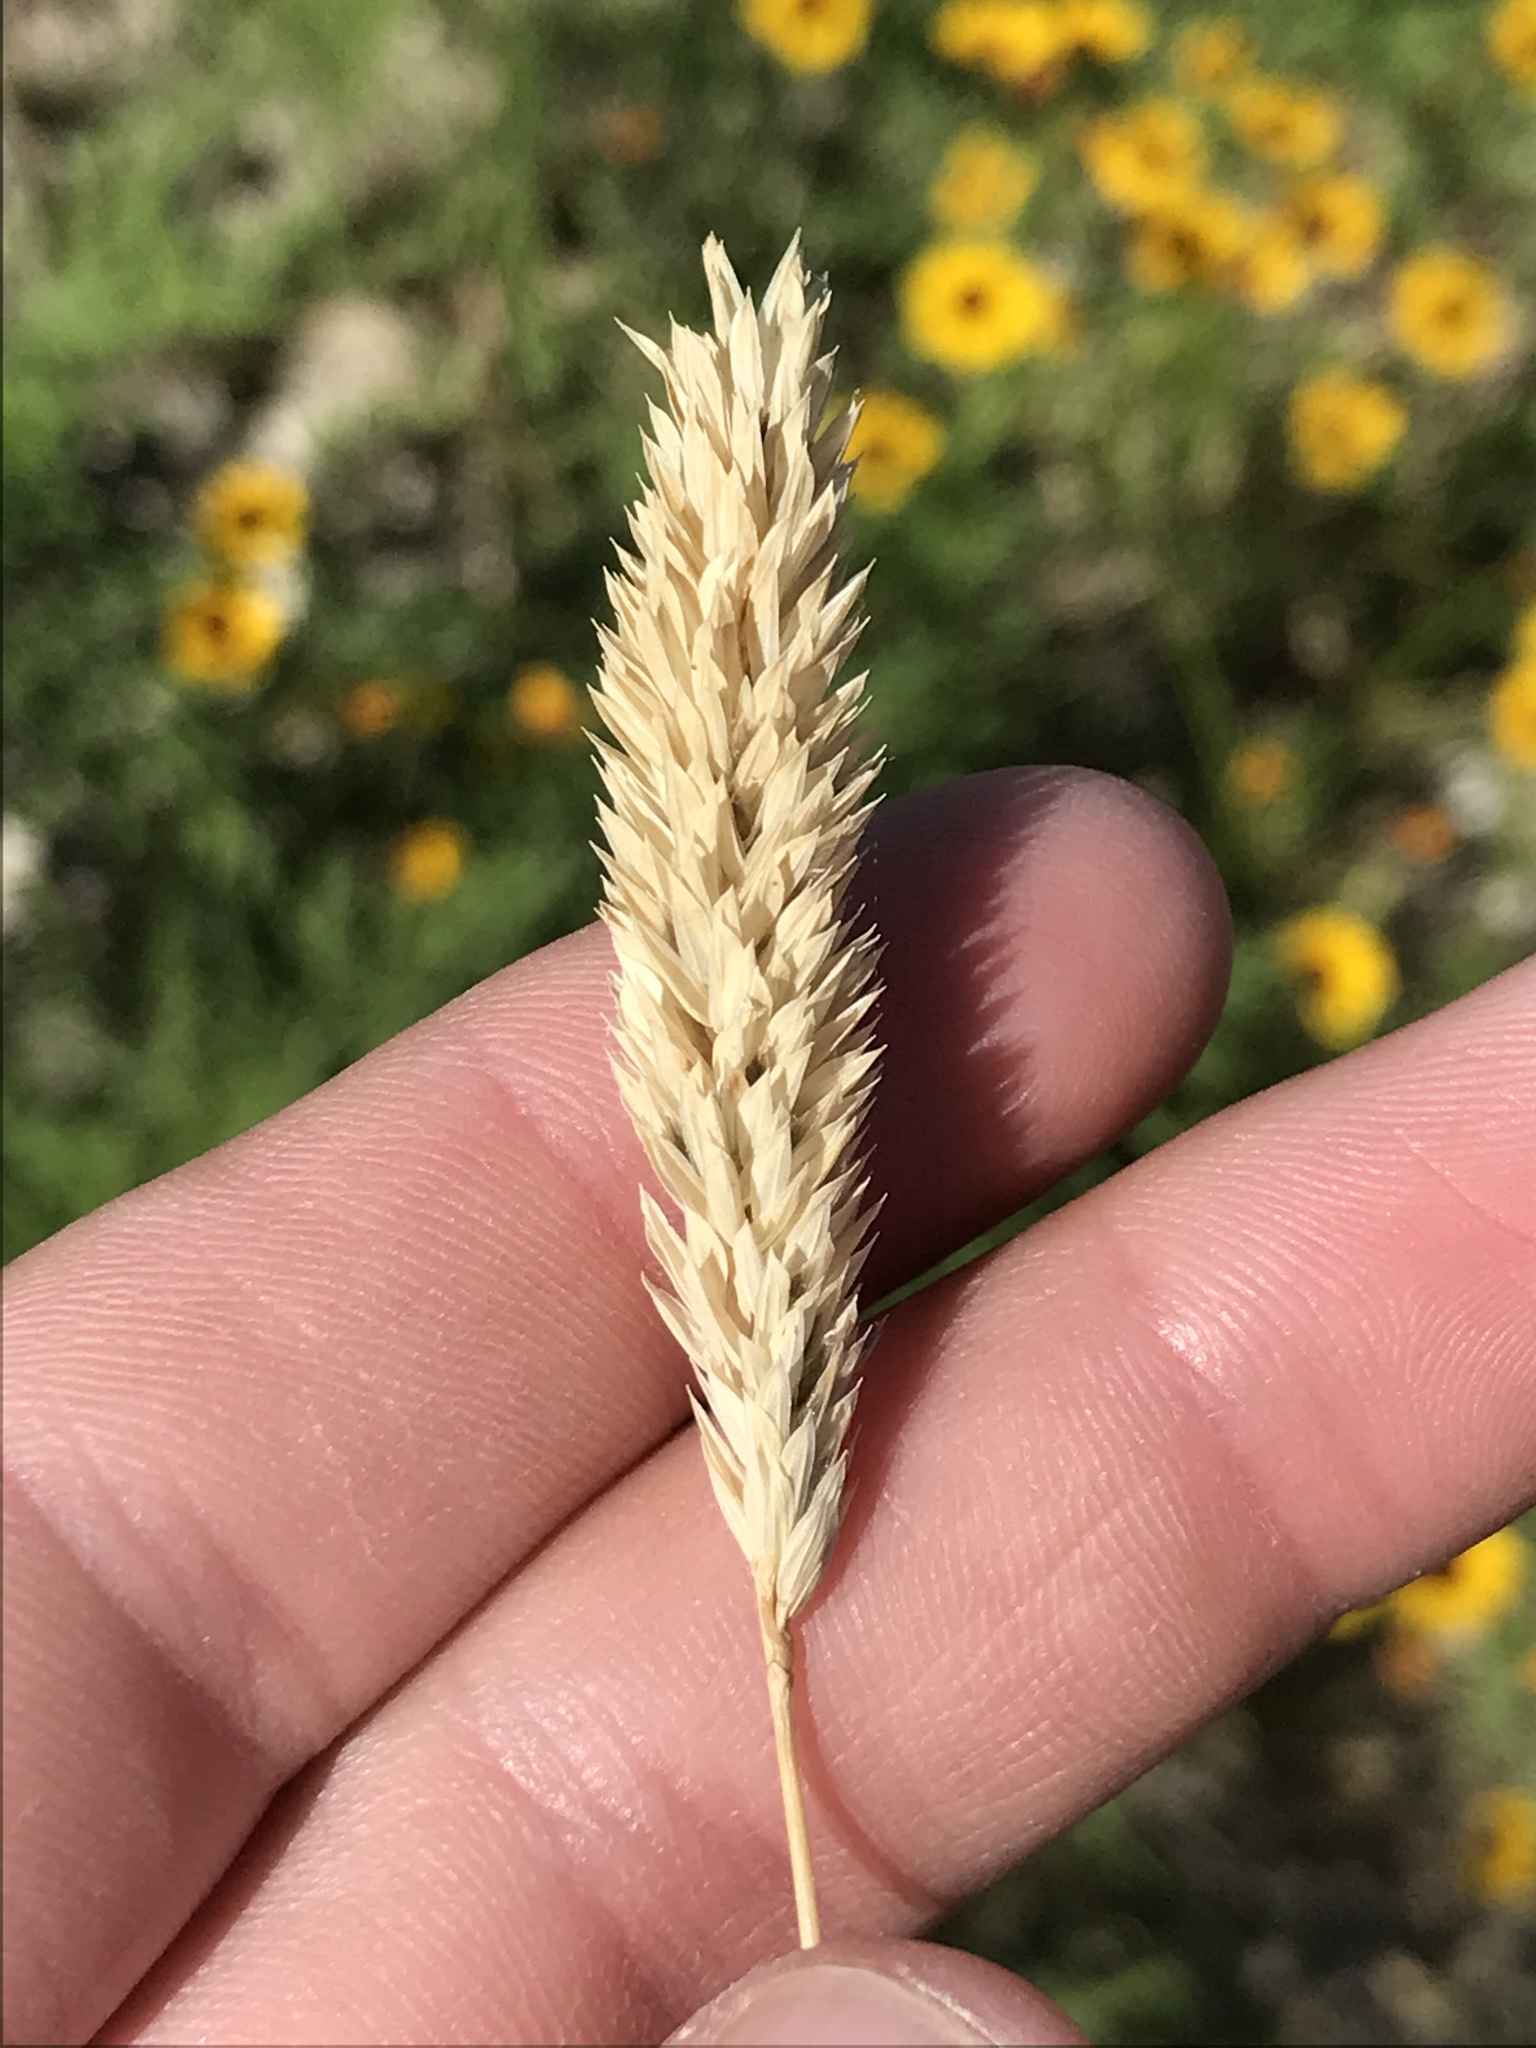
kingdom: Plantae
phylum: Tracheophyta
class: Liliopsida
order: Poales
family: Poaceae
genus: Phalaris
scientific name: Phalaris caroliniana
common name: May grass
